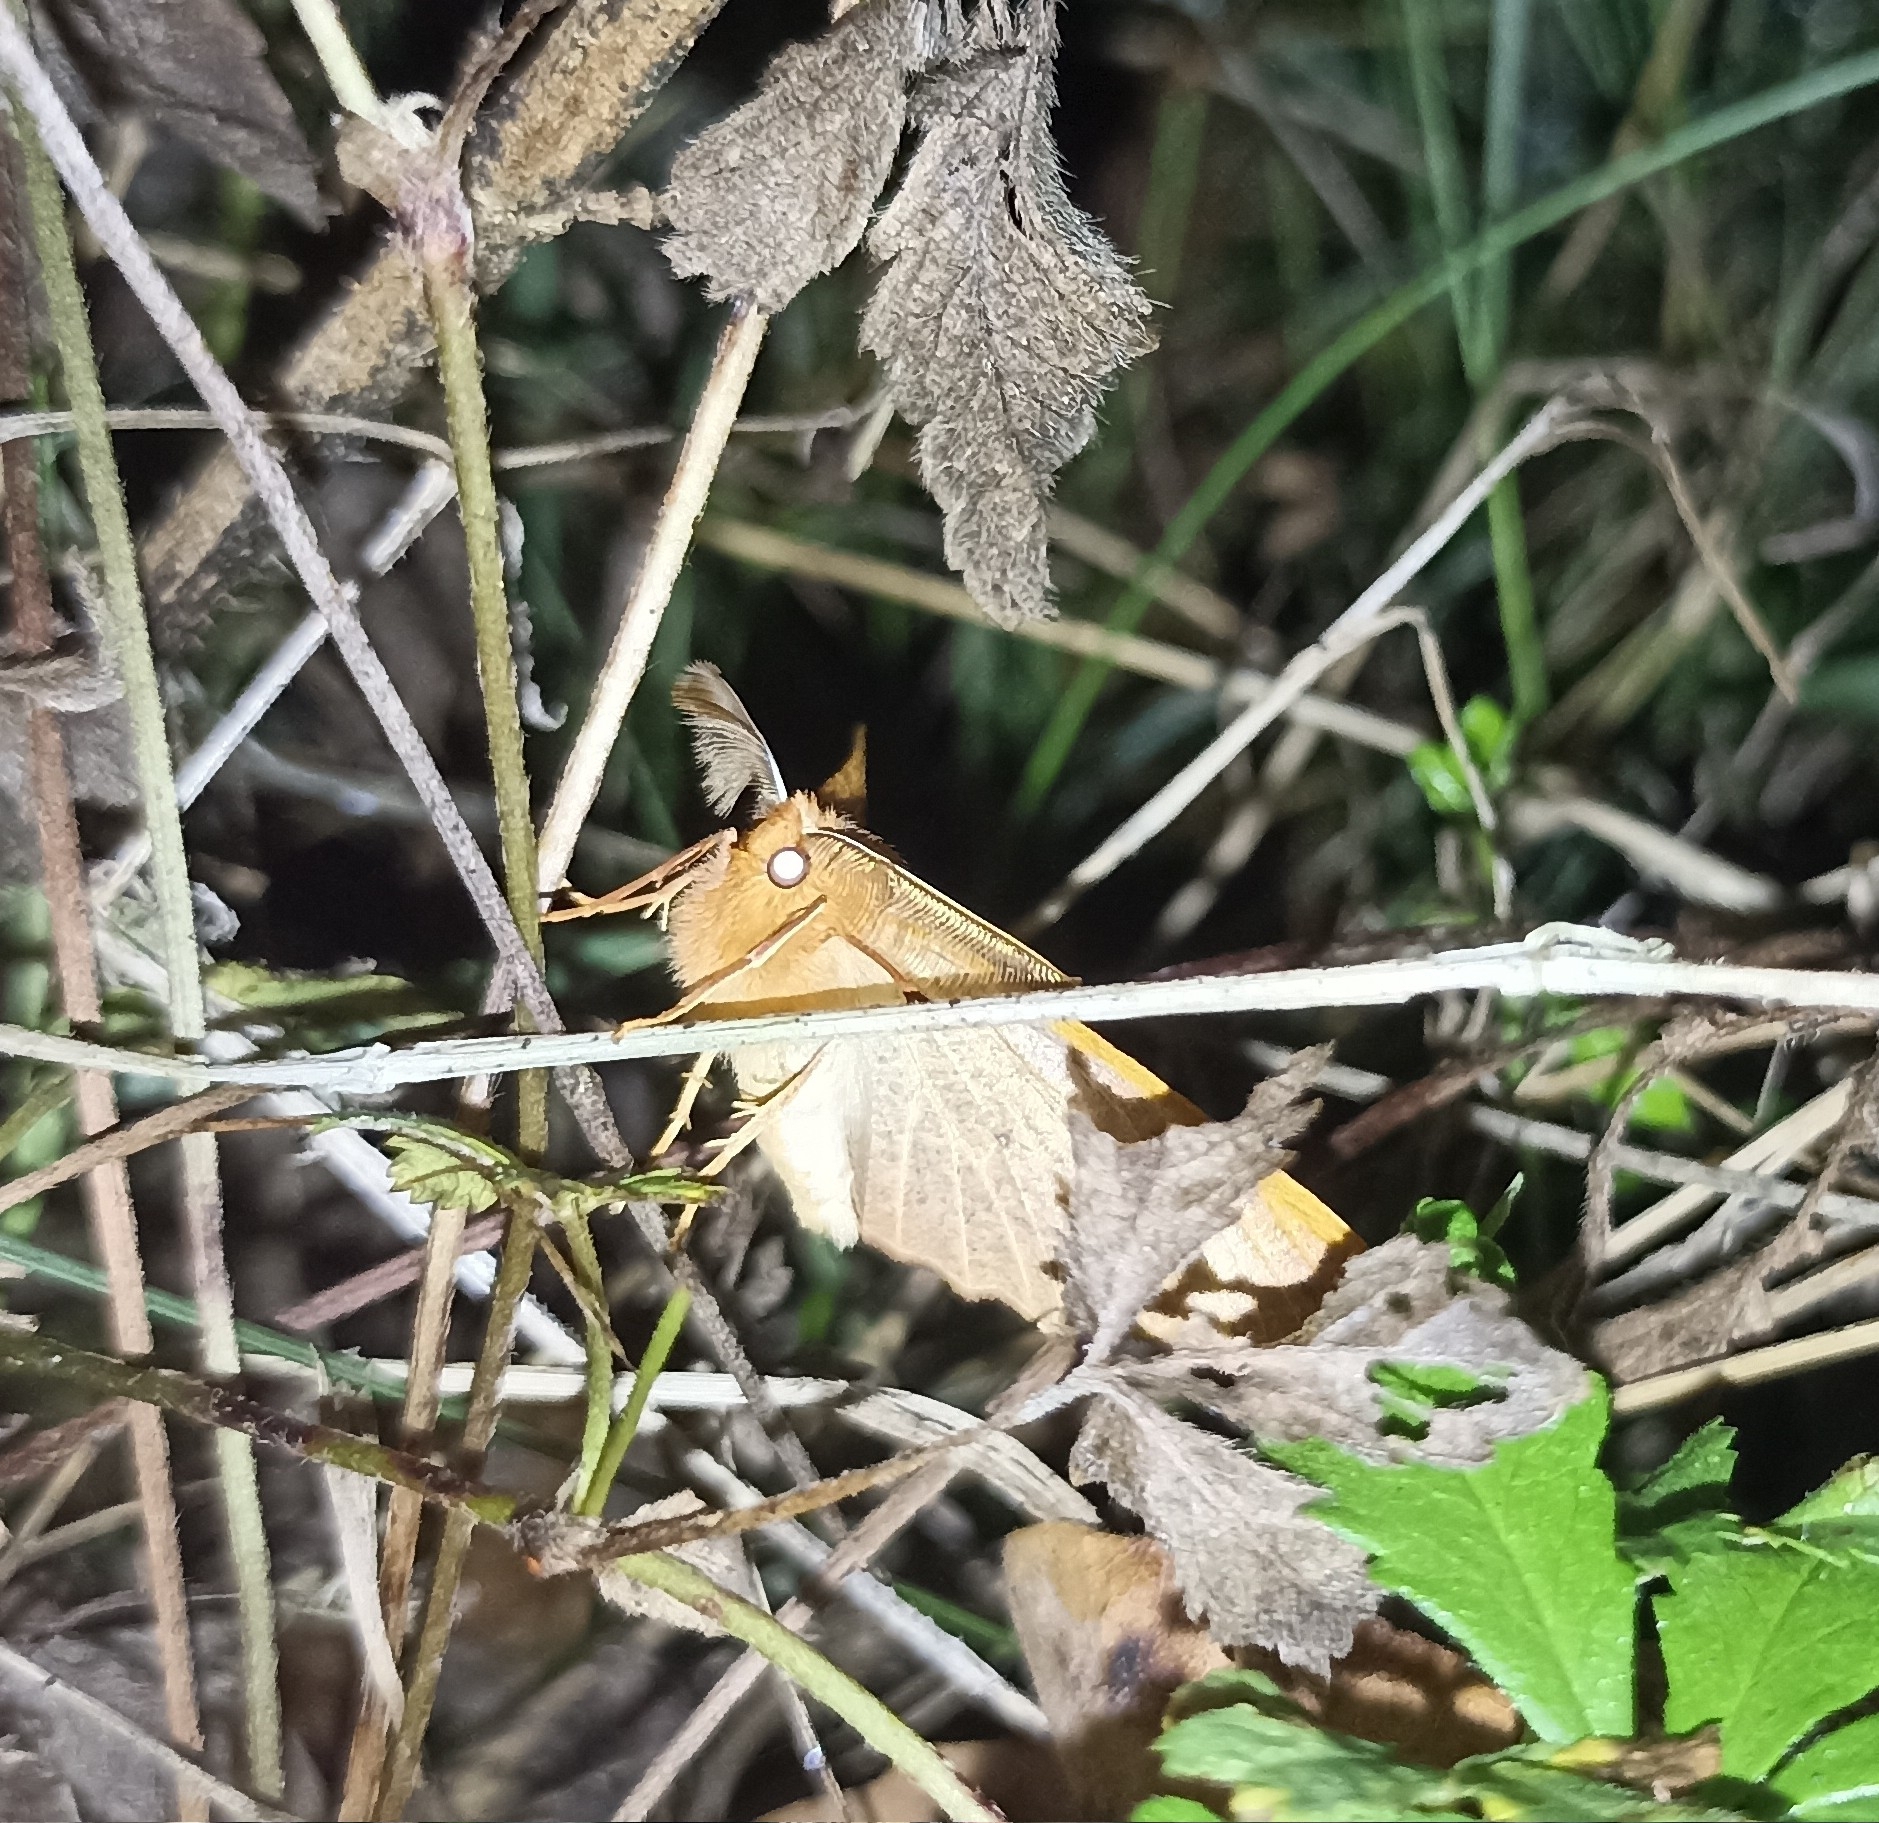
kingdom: Animalia
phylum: Arthropoda
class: Insecta
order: Lepidoptera
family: Geometridae
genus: Colotois
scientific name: Colotois pennaria
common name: Feathered thorn
